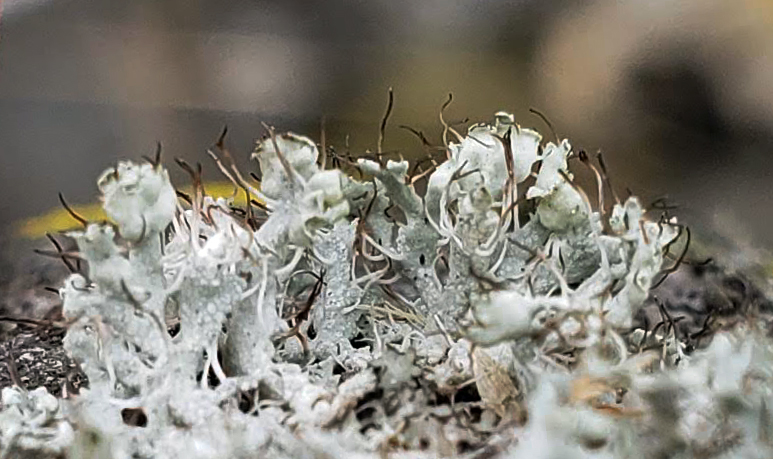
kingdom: Fungi
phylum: Ascomycota
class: Lecanoromycetes
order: Caliciales
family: Physciaceae
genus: Physcia
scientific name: Physcia adscendens
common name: Hooded rosette lichen
